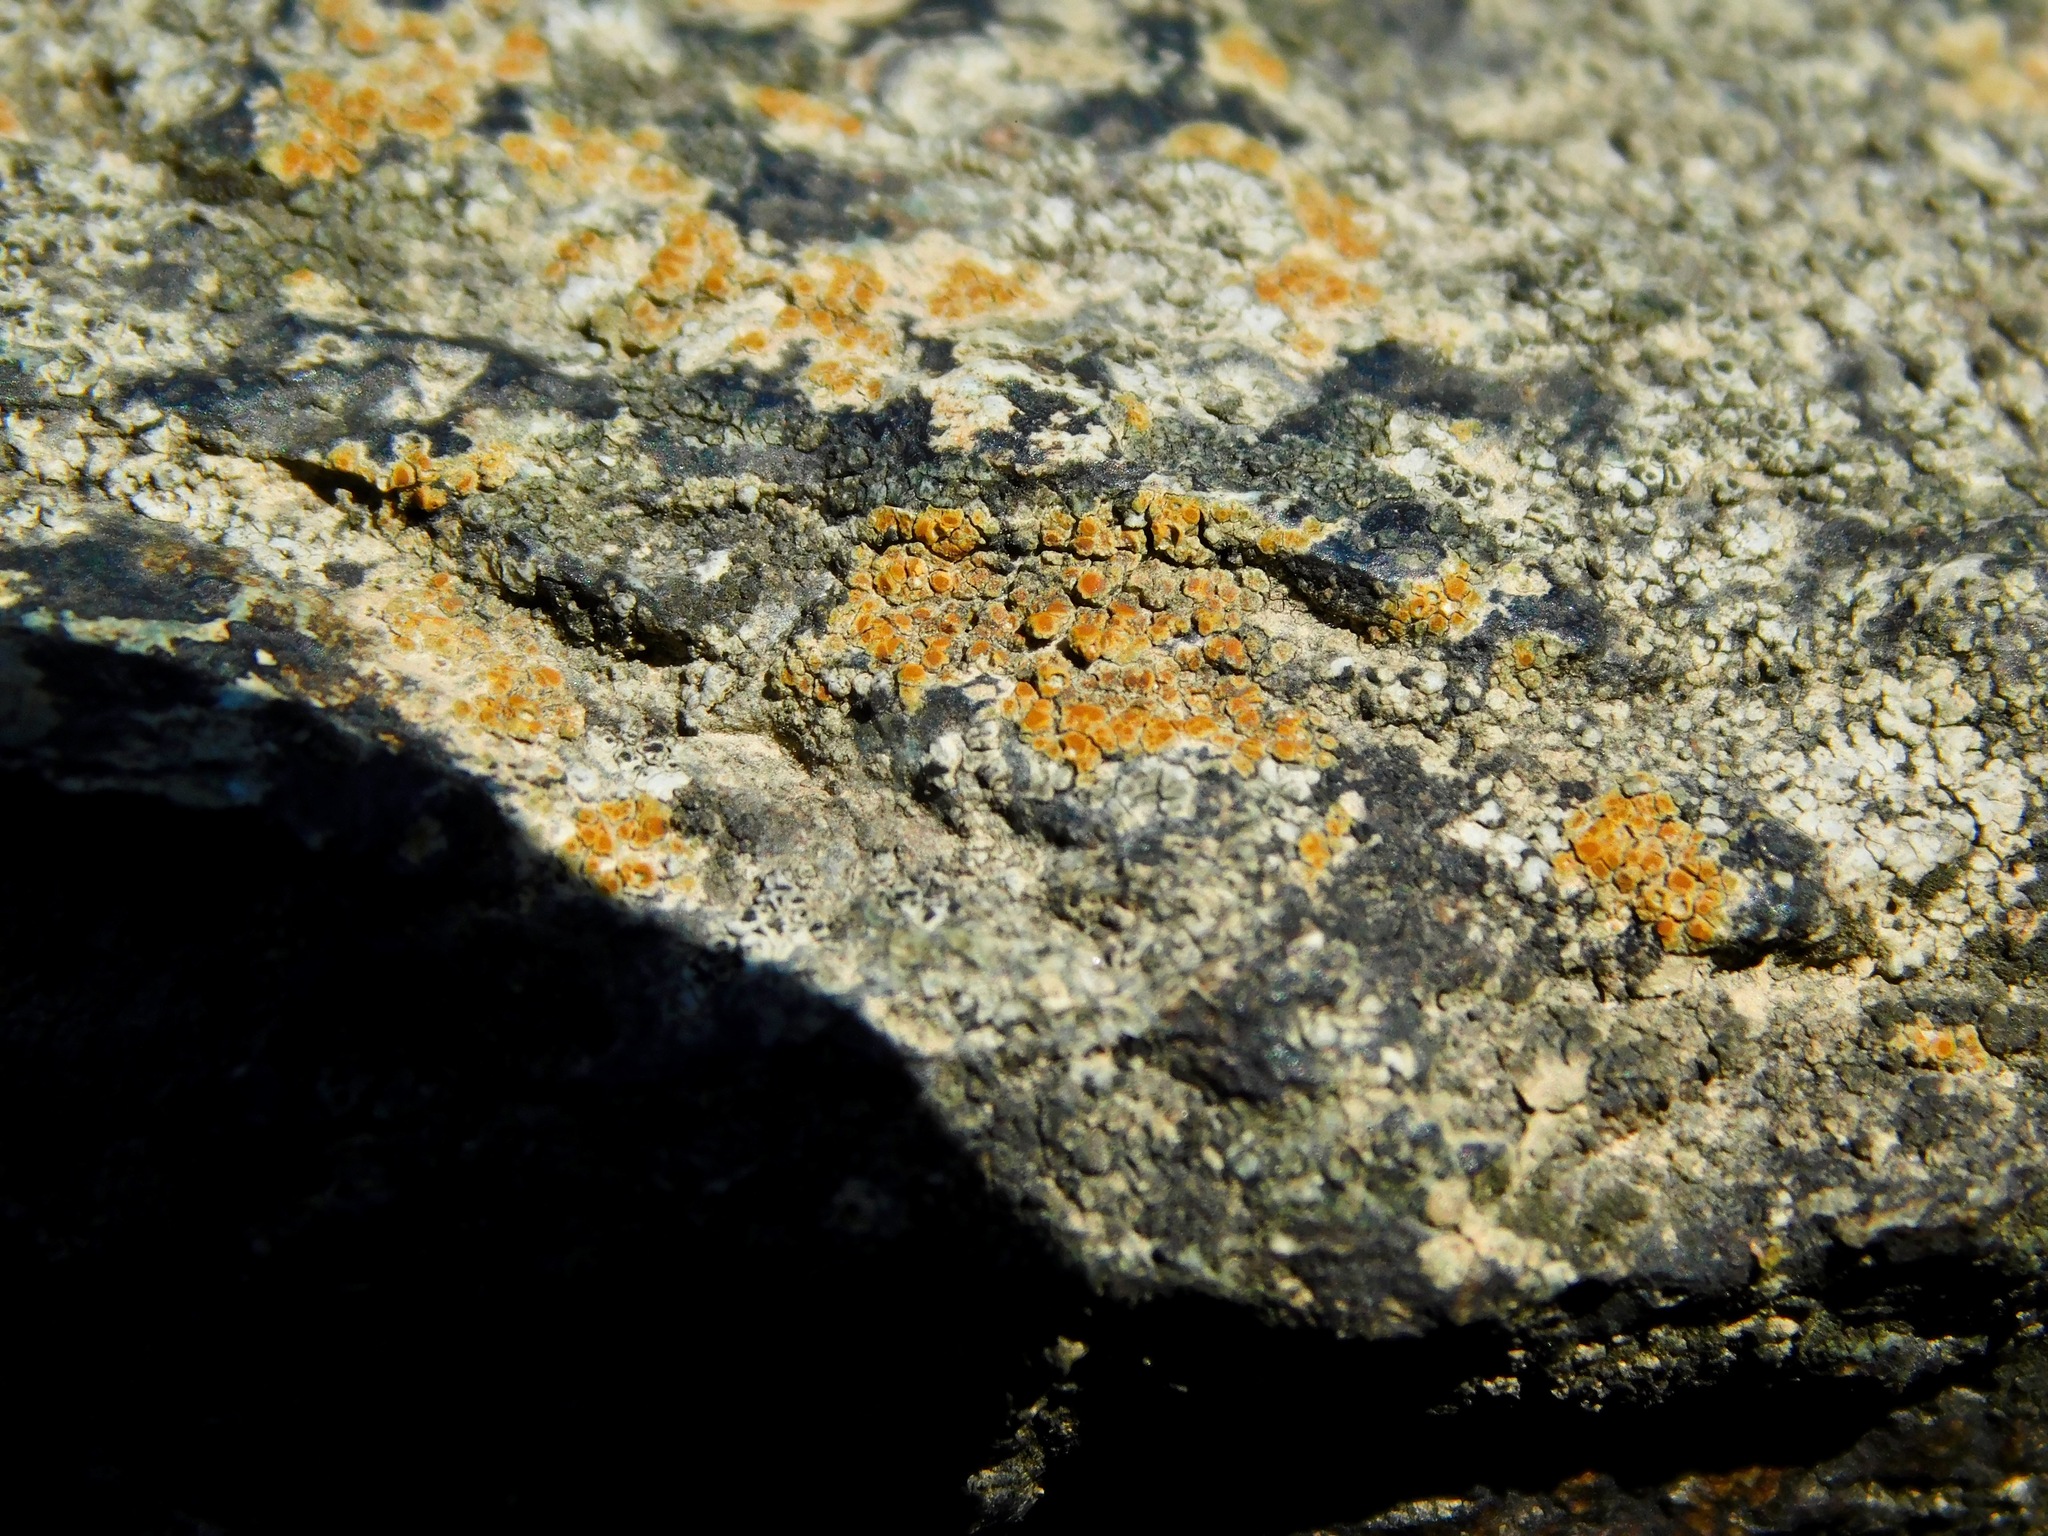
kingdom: Fungi
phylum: Ascomycota
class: Lecanoromycetes
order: Teloschistales
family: Teloschistaceae
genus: Squamulea
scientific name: Squamulea subsoluta
